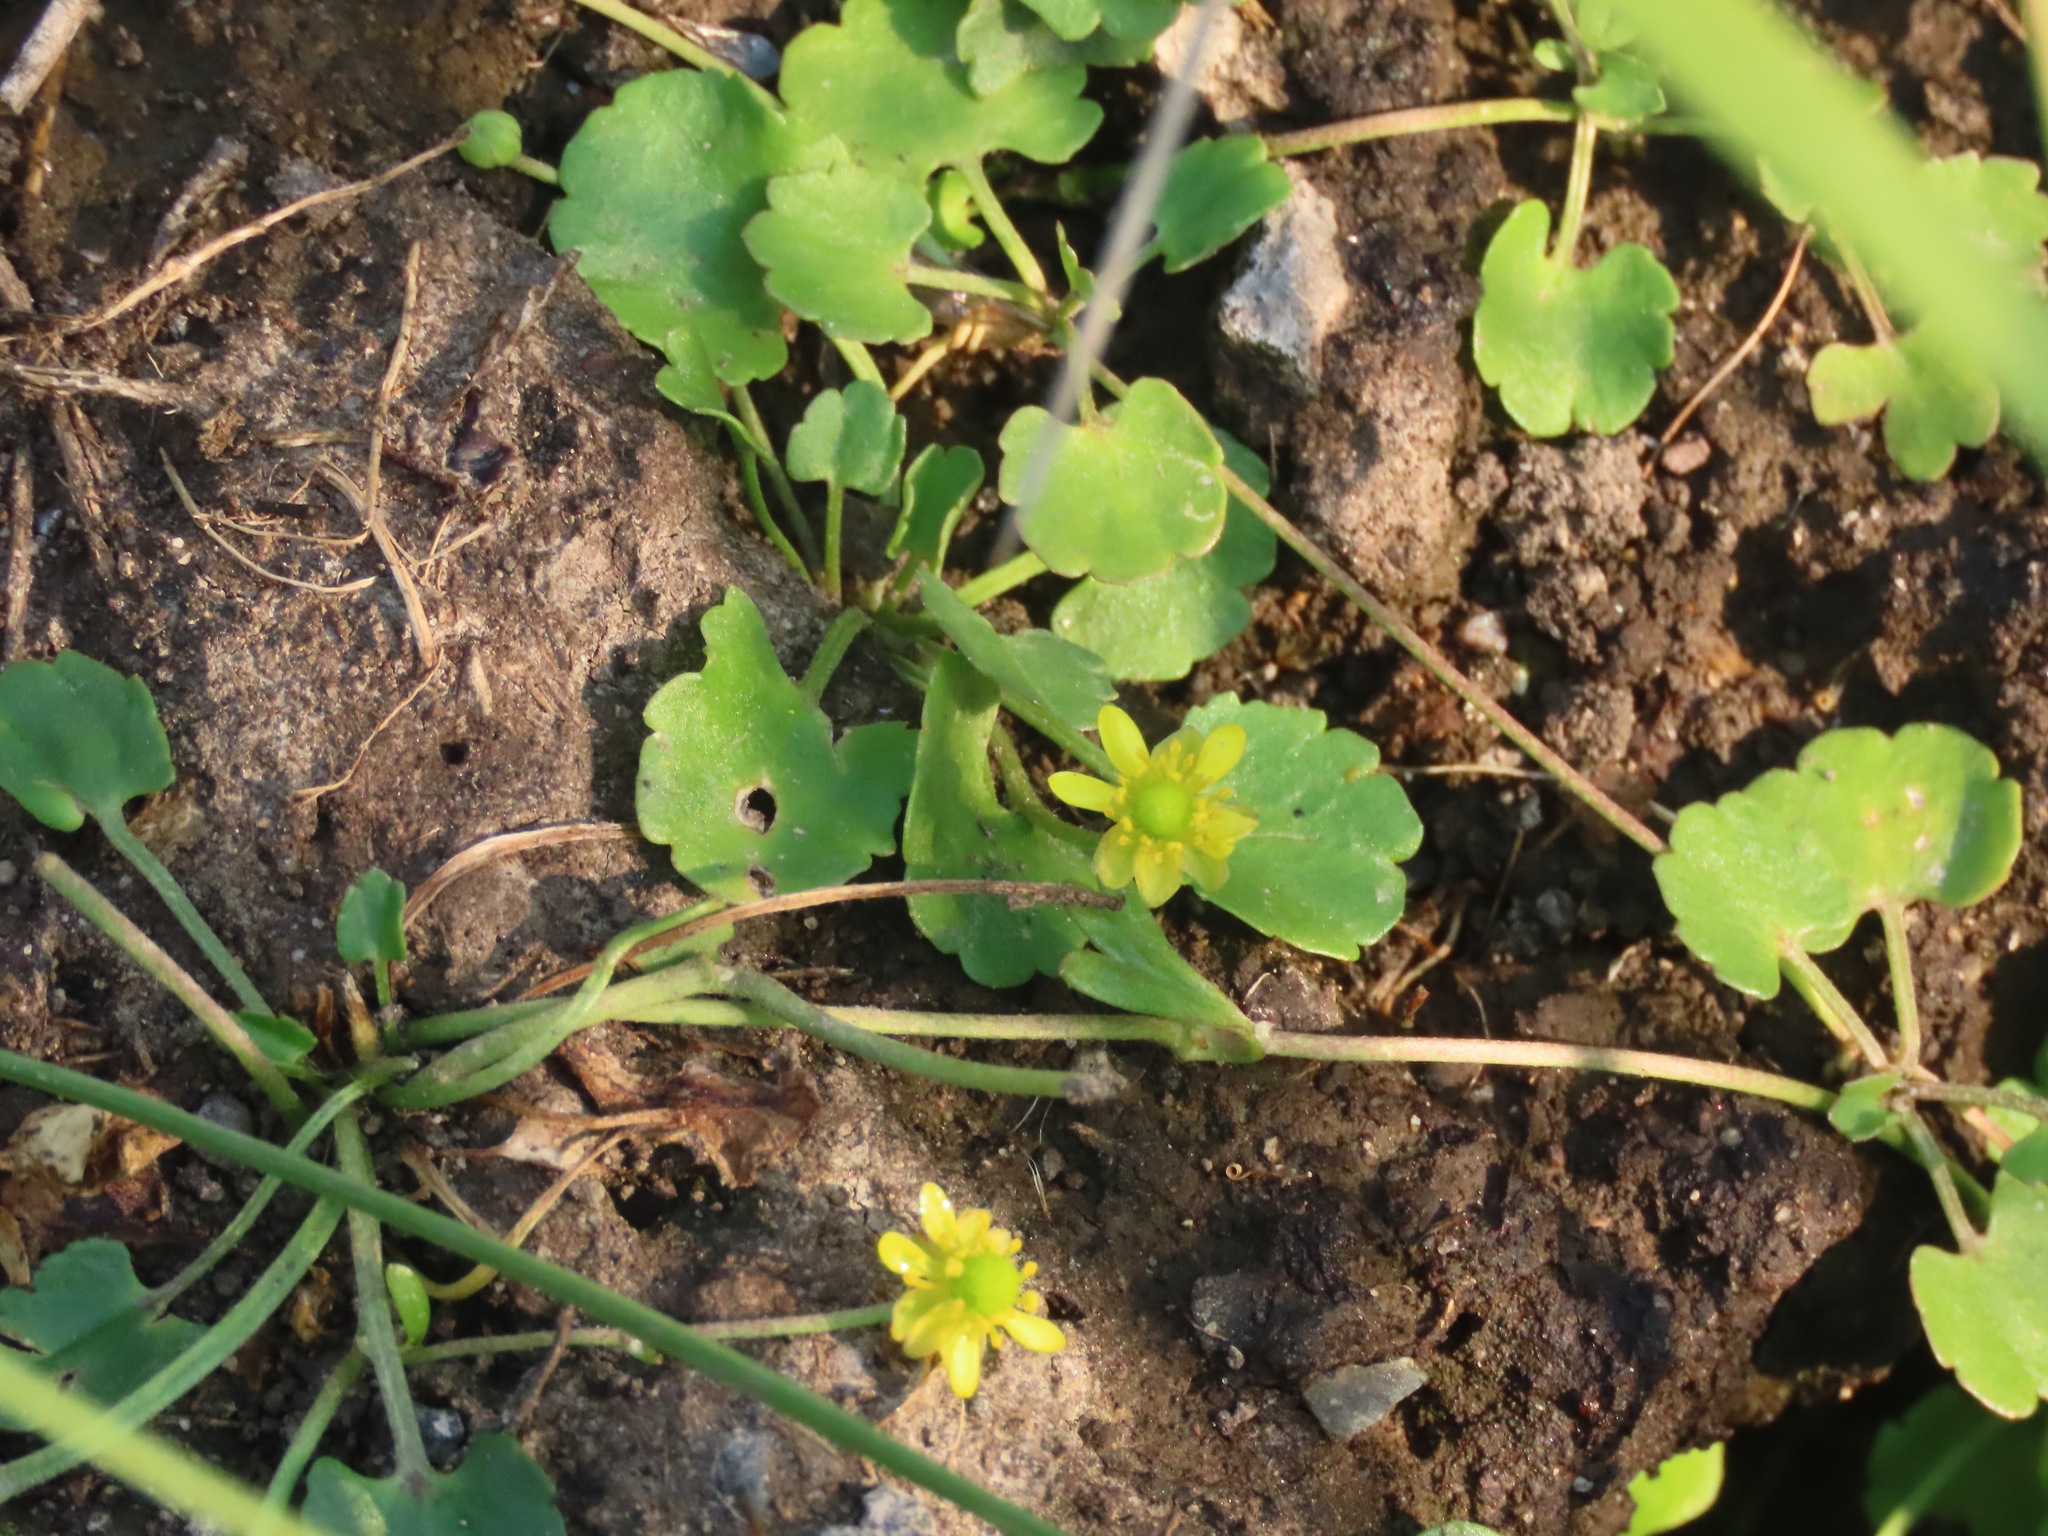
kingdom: Plantae
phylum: Tracheophyta
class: Magnoliopsida
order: Ranunculales
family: Ranunculaceae
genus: Halerpestes
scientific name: Halerpestes cymbalaria
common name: Seaside crowfoot
